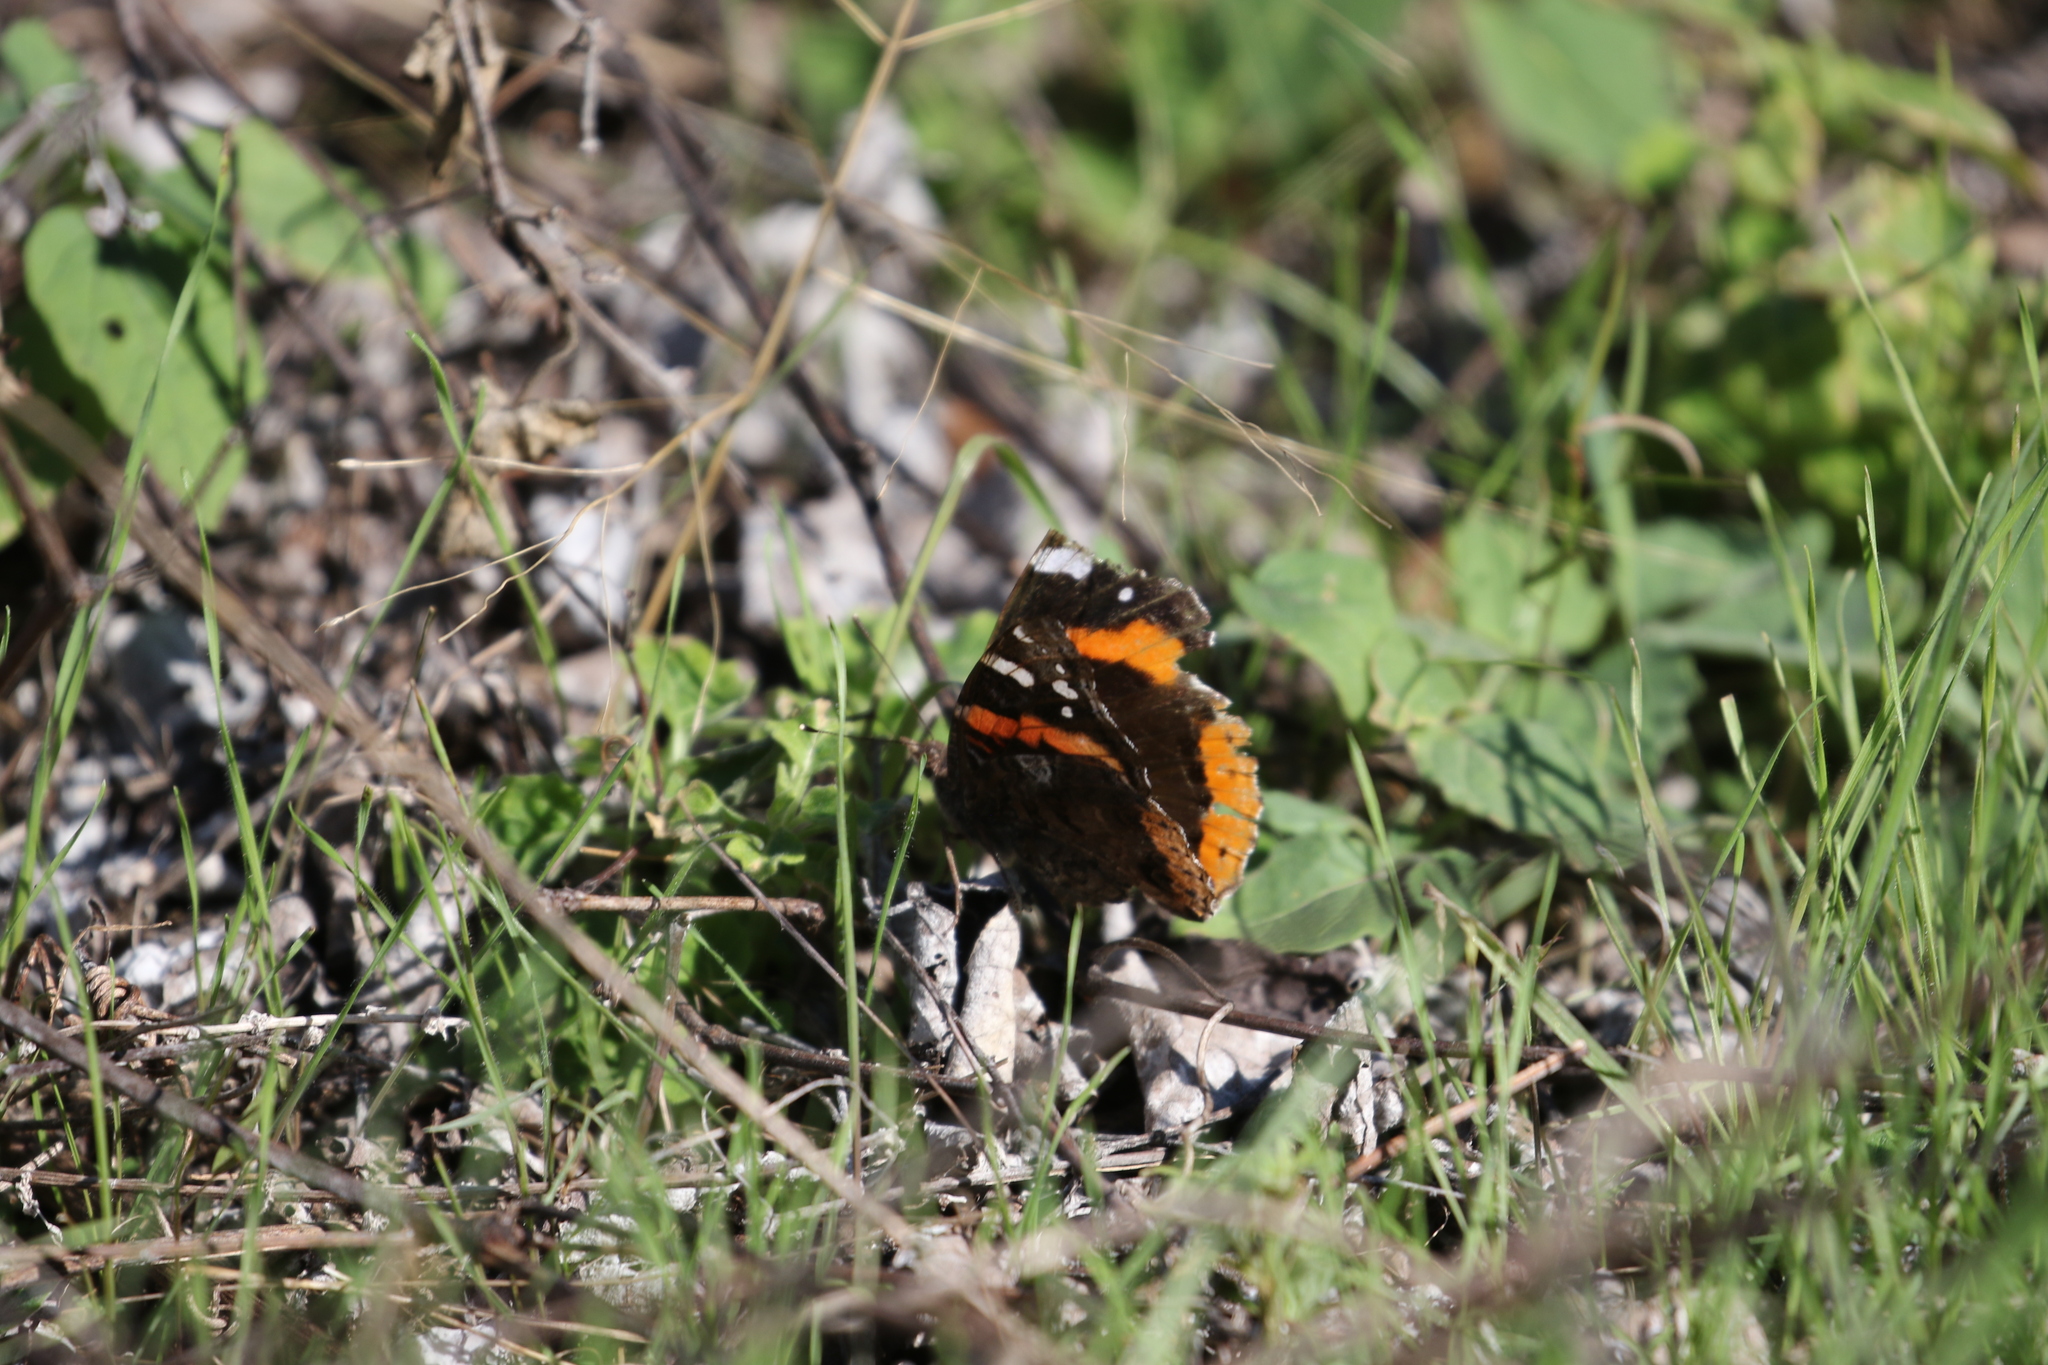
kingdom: Animalia
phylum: Arthropoda
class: Insecta
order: Lepidoptera
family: Nymphalidae
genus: Vanessa
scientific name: Vanessa atalanta
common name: Red admiral
